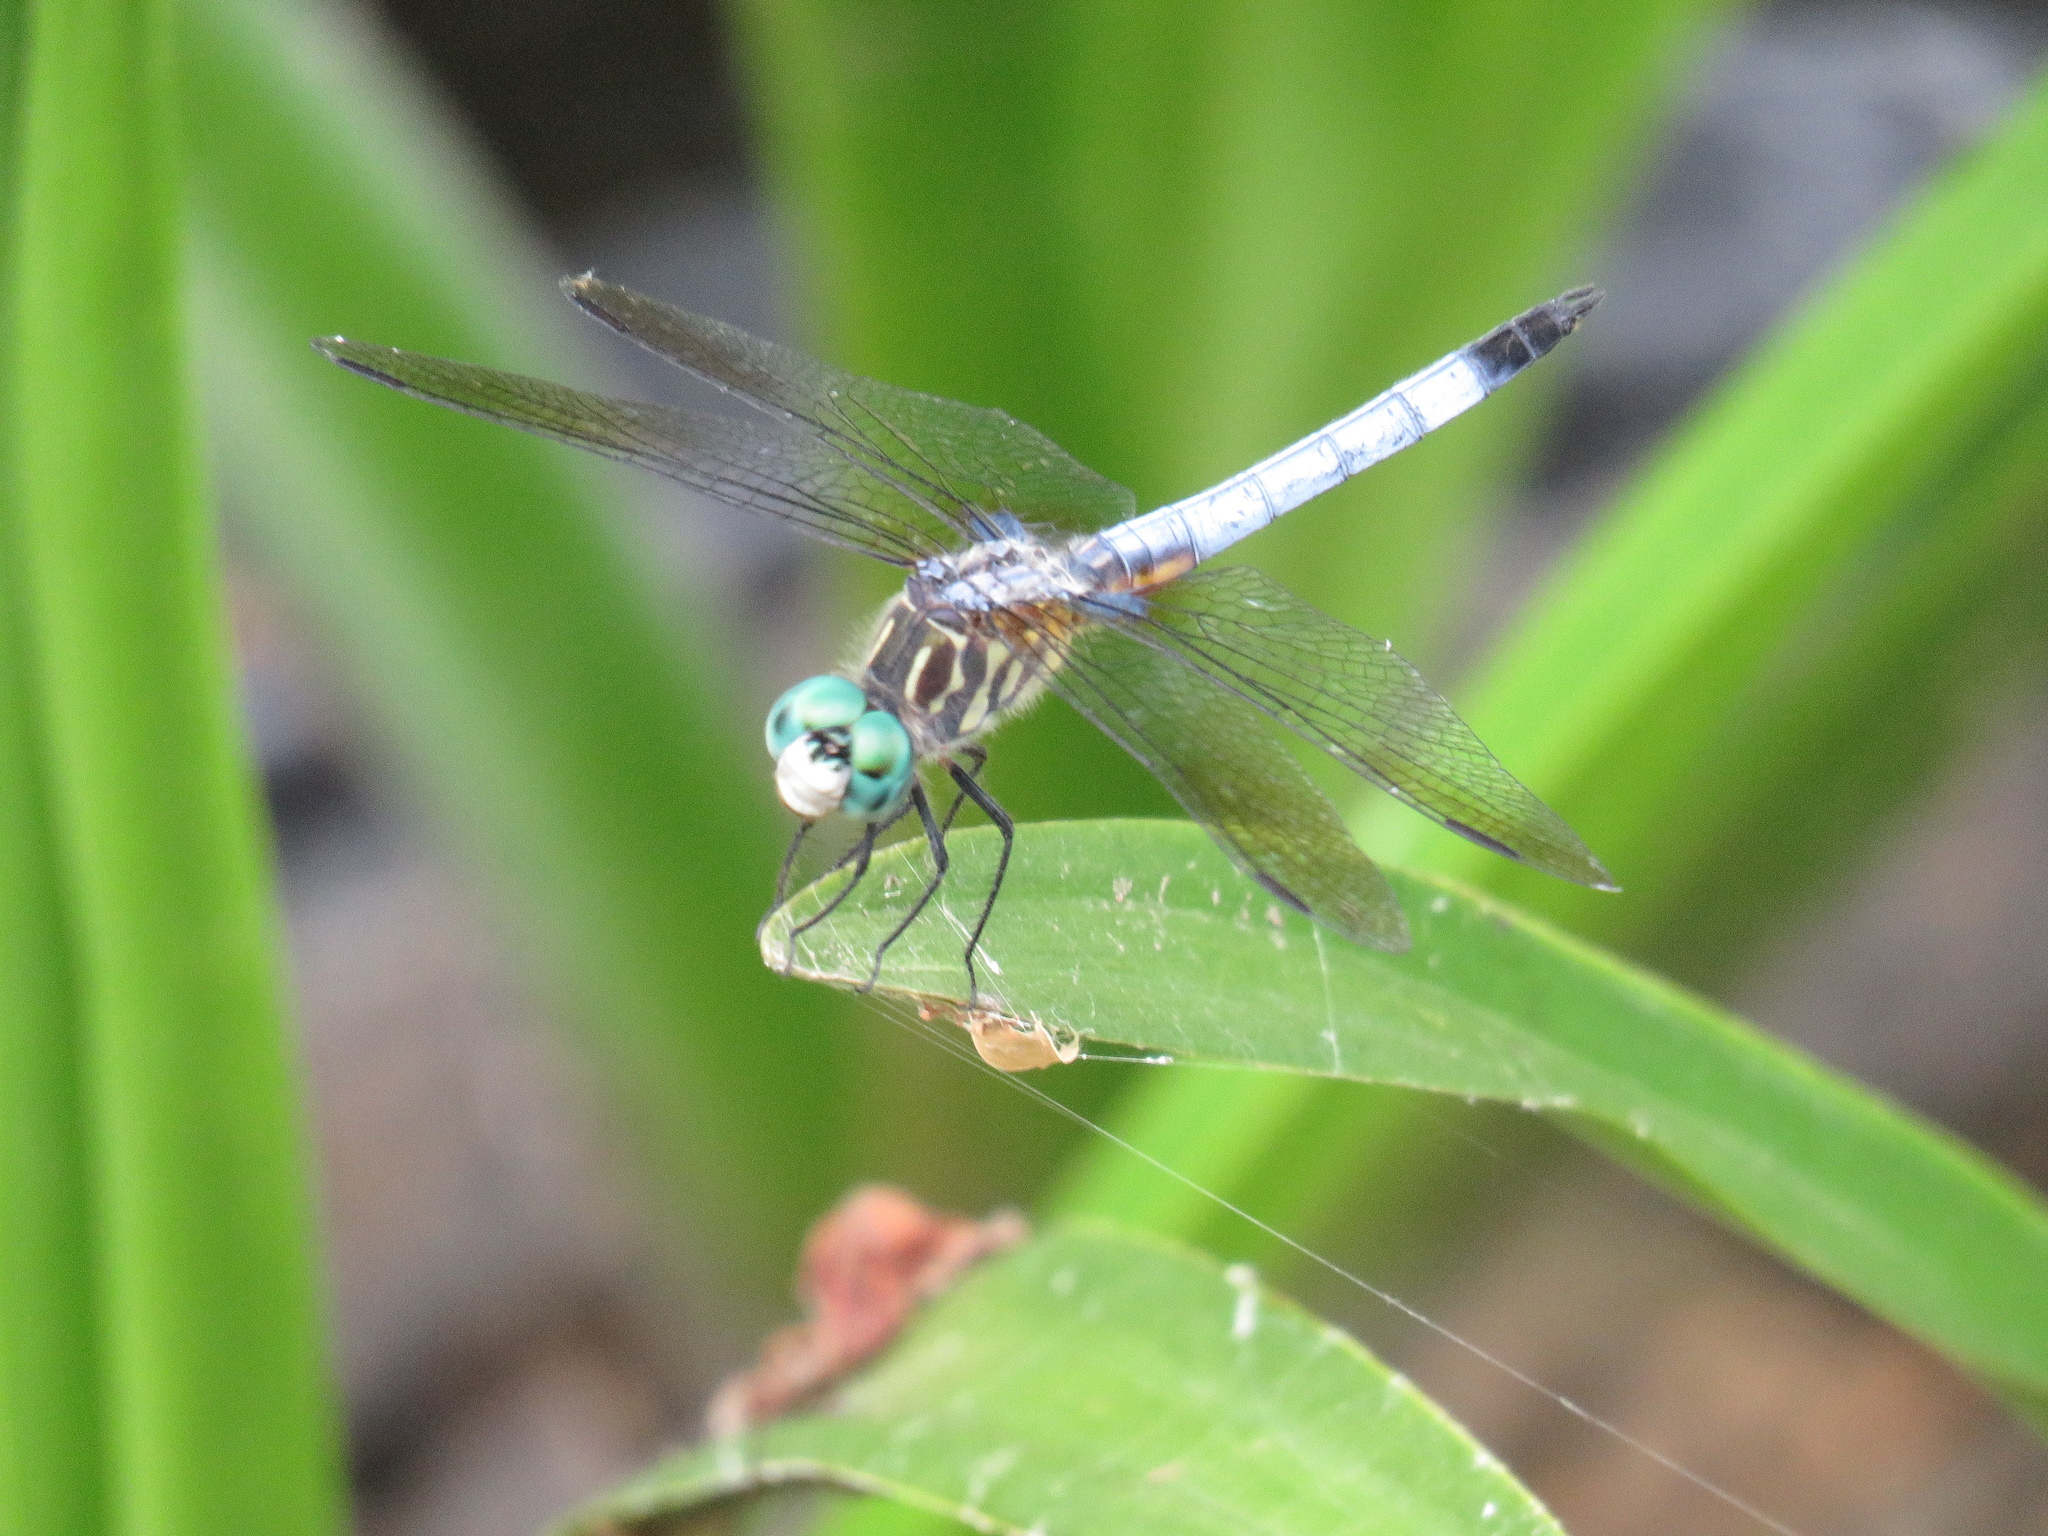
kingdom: Animalia
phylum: Arthropoda
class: Insecta
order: Odonata
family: Libellulidae
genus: Pachydiplax
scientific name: Pachydiplax longipennis
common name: Blue dasher
